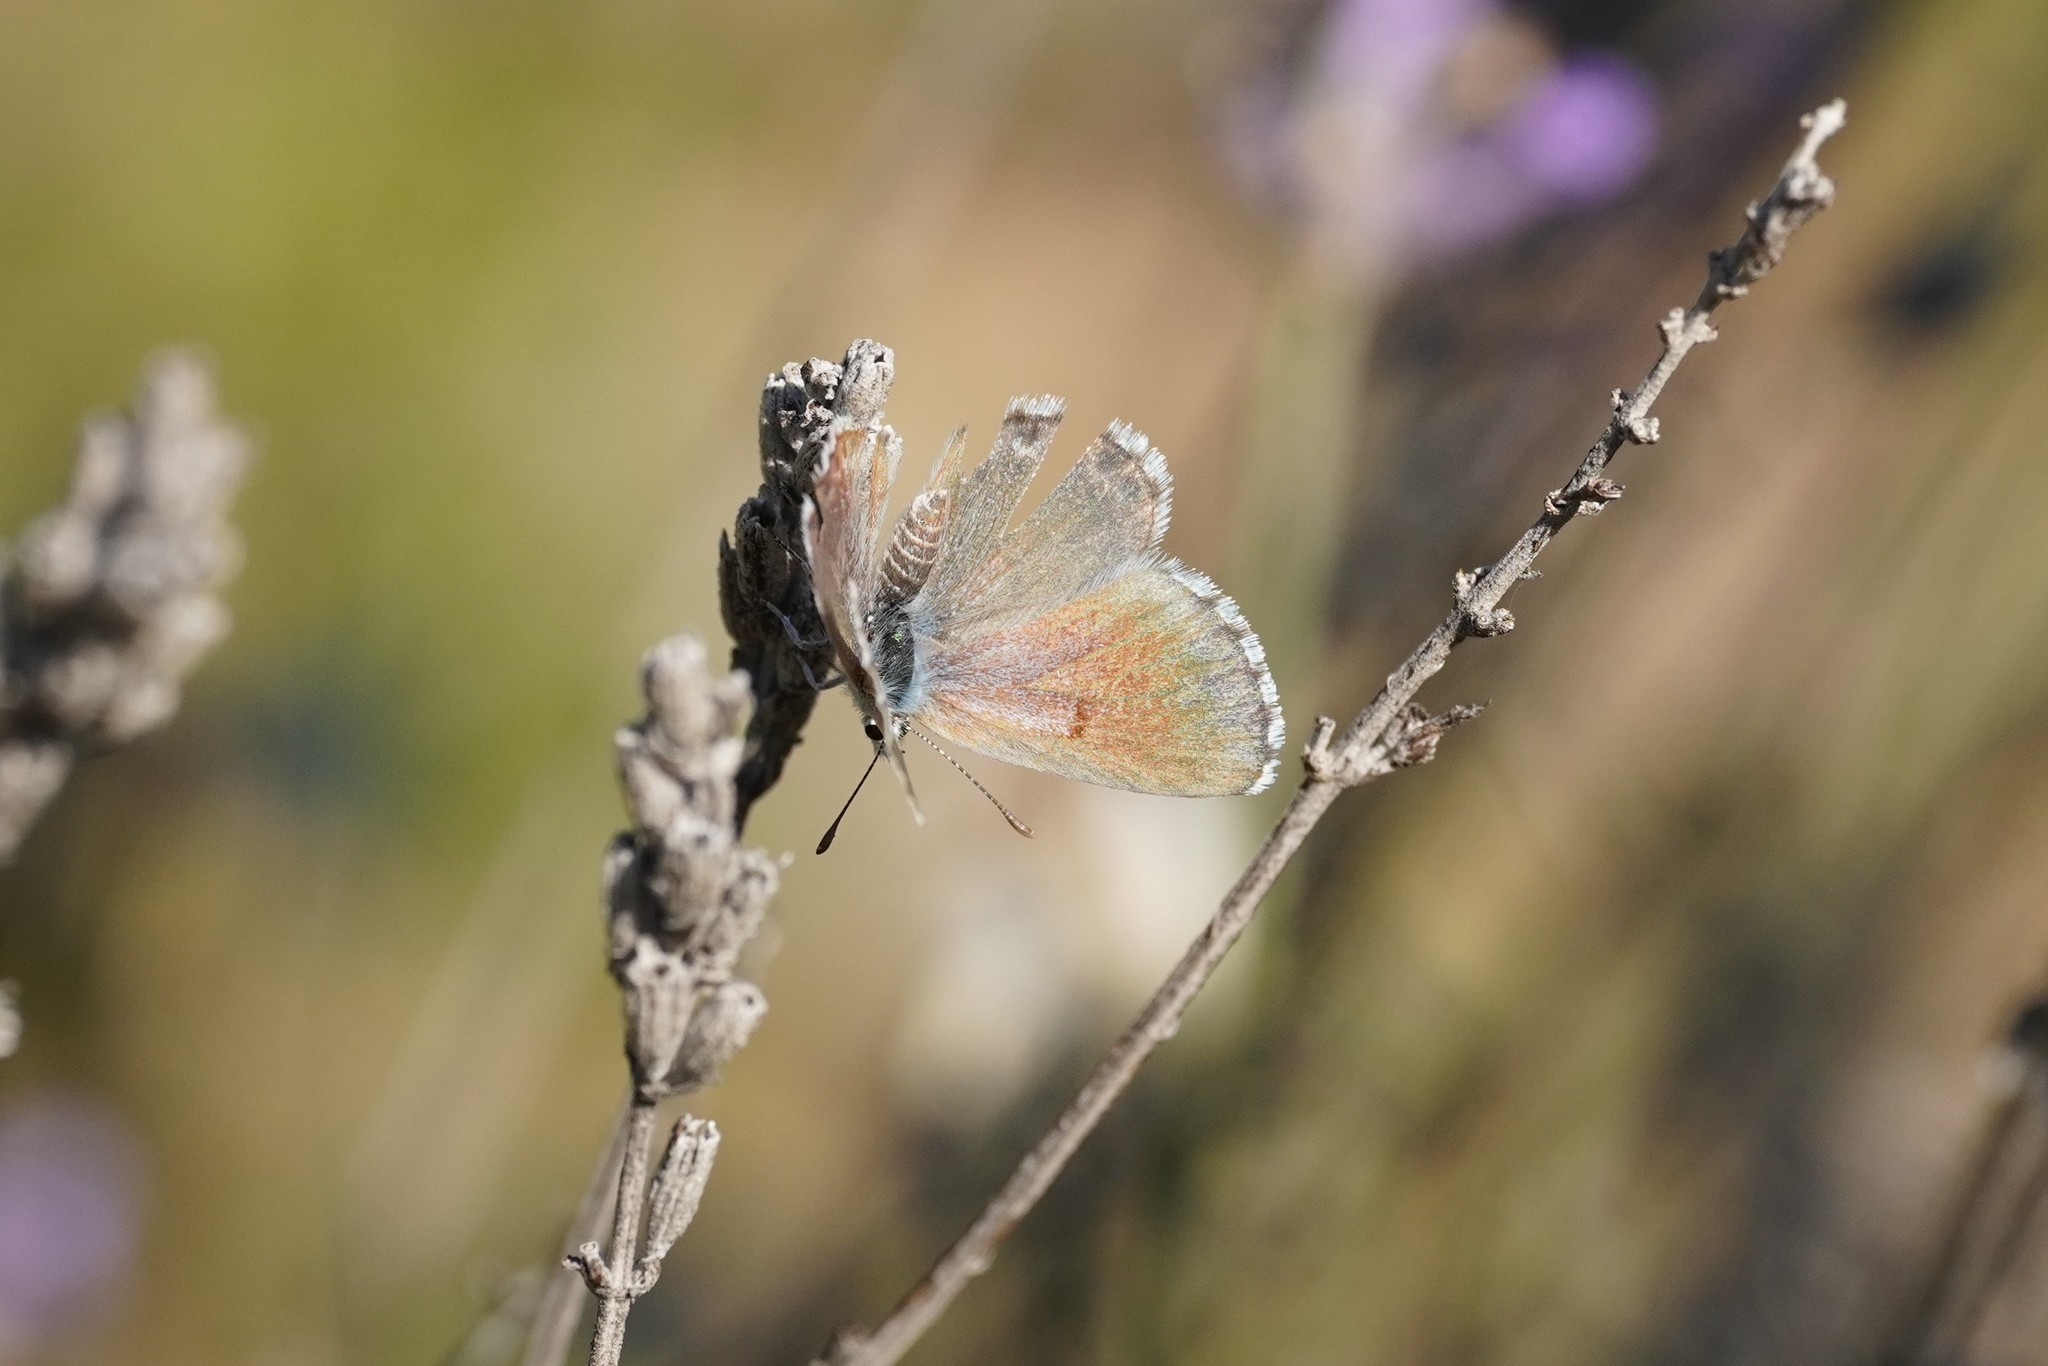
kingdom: Animalia
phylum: Arthropoda
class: Insecta
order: Lepidoptera
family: Lycaenidae
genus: Pseudophilotes
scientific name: Pseudophilotes baton
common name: Baton blue
